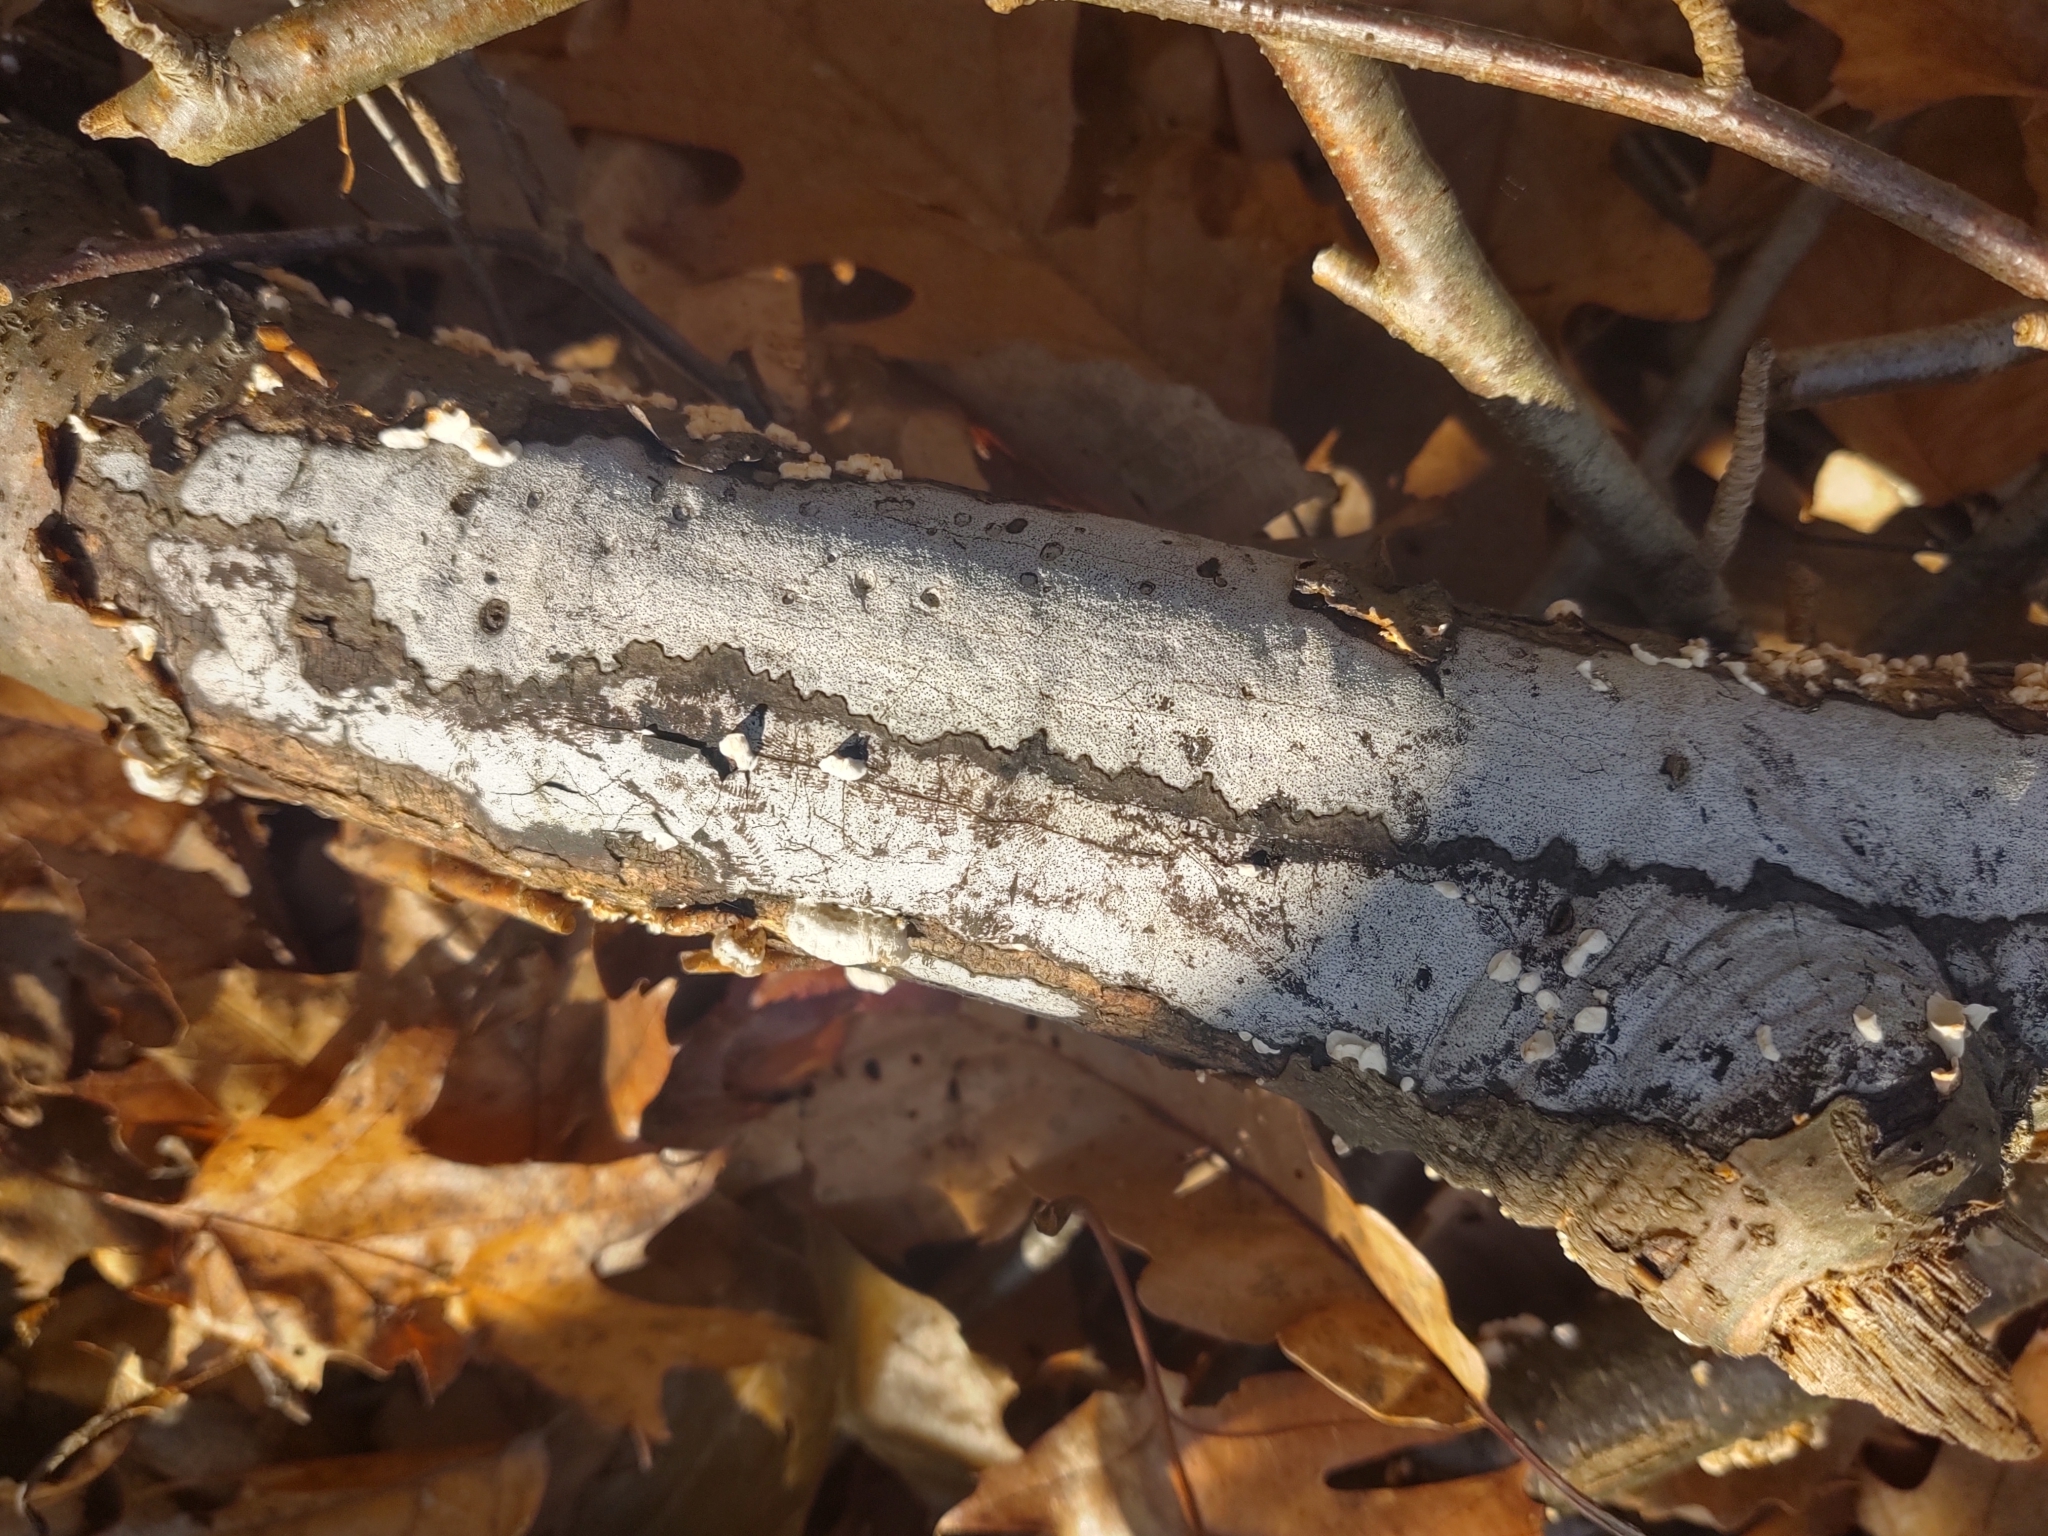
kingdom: Fungi
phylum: Ascomycota
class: Sordariomycetes
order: Xylariales
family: Graphostromataceae
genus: Biscogniauxia
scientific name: Biscogniauxia atropunctata
